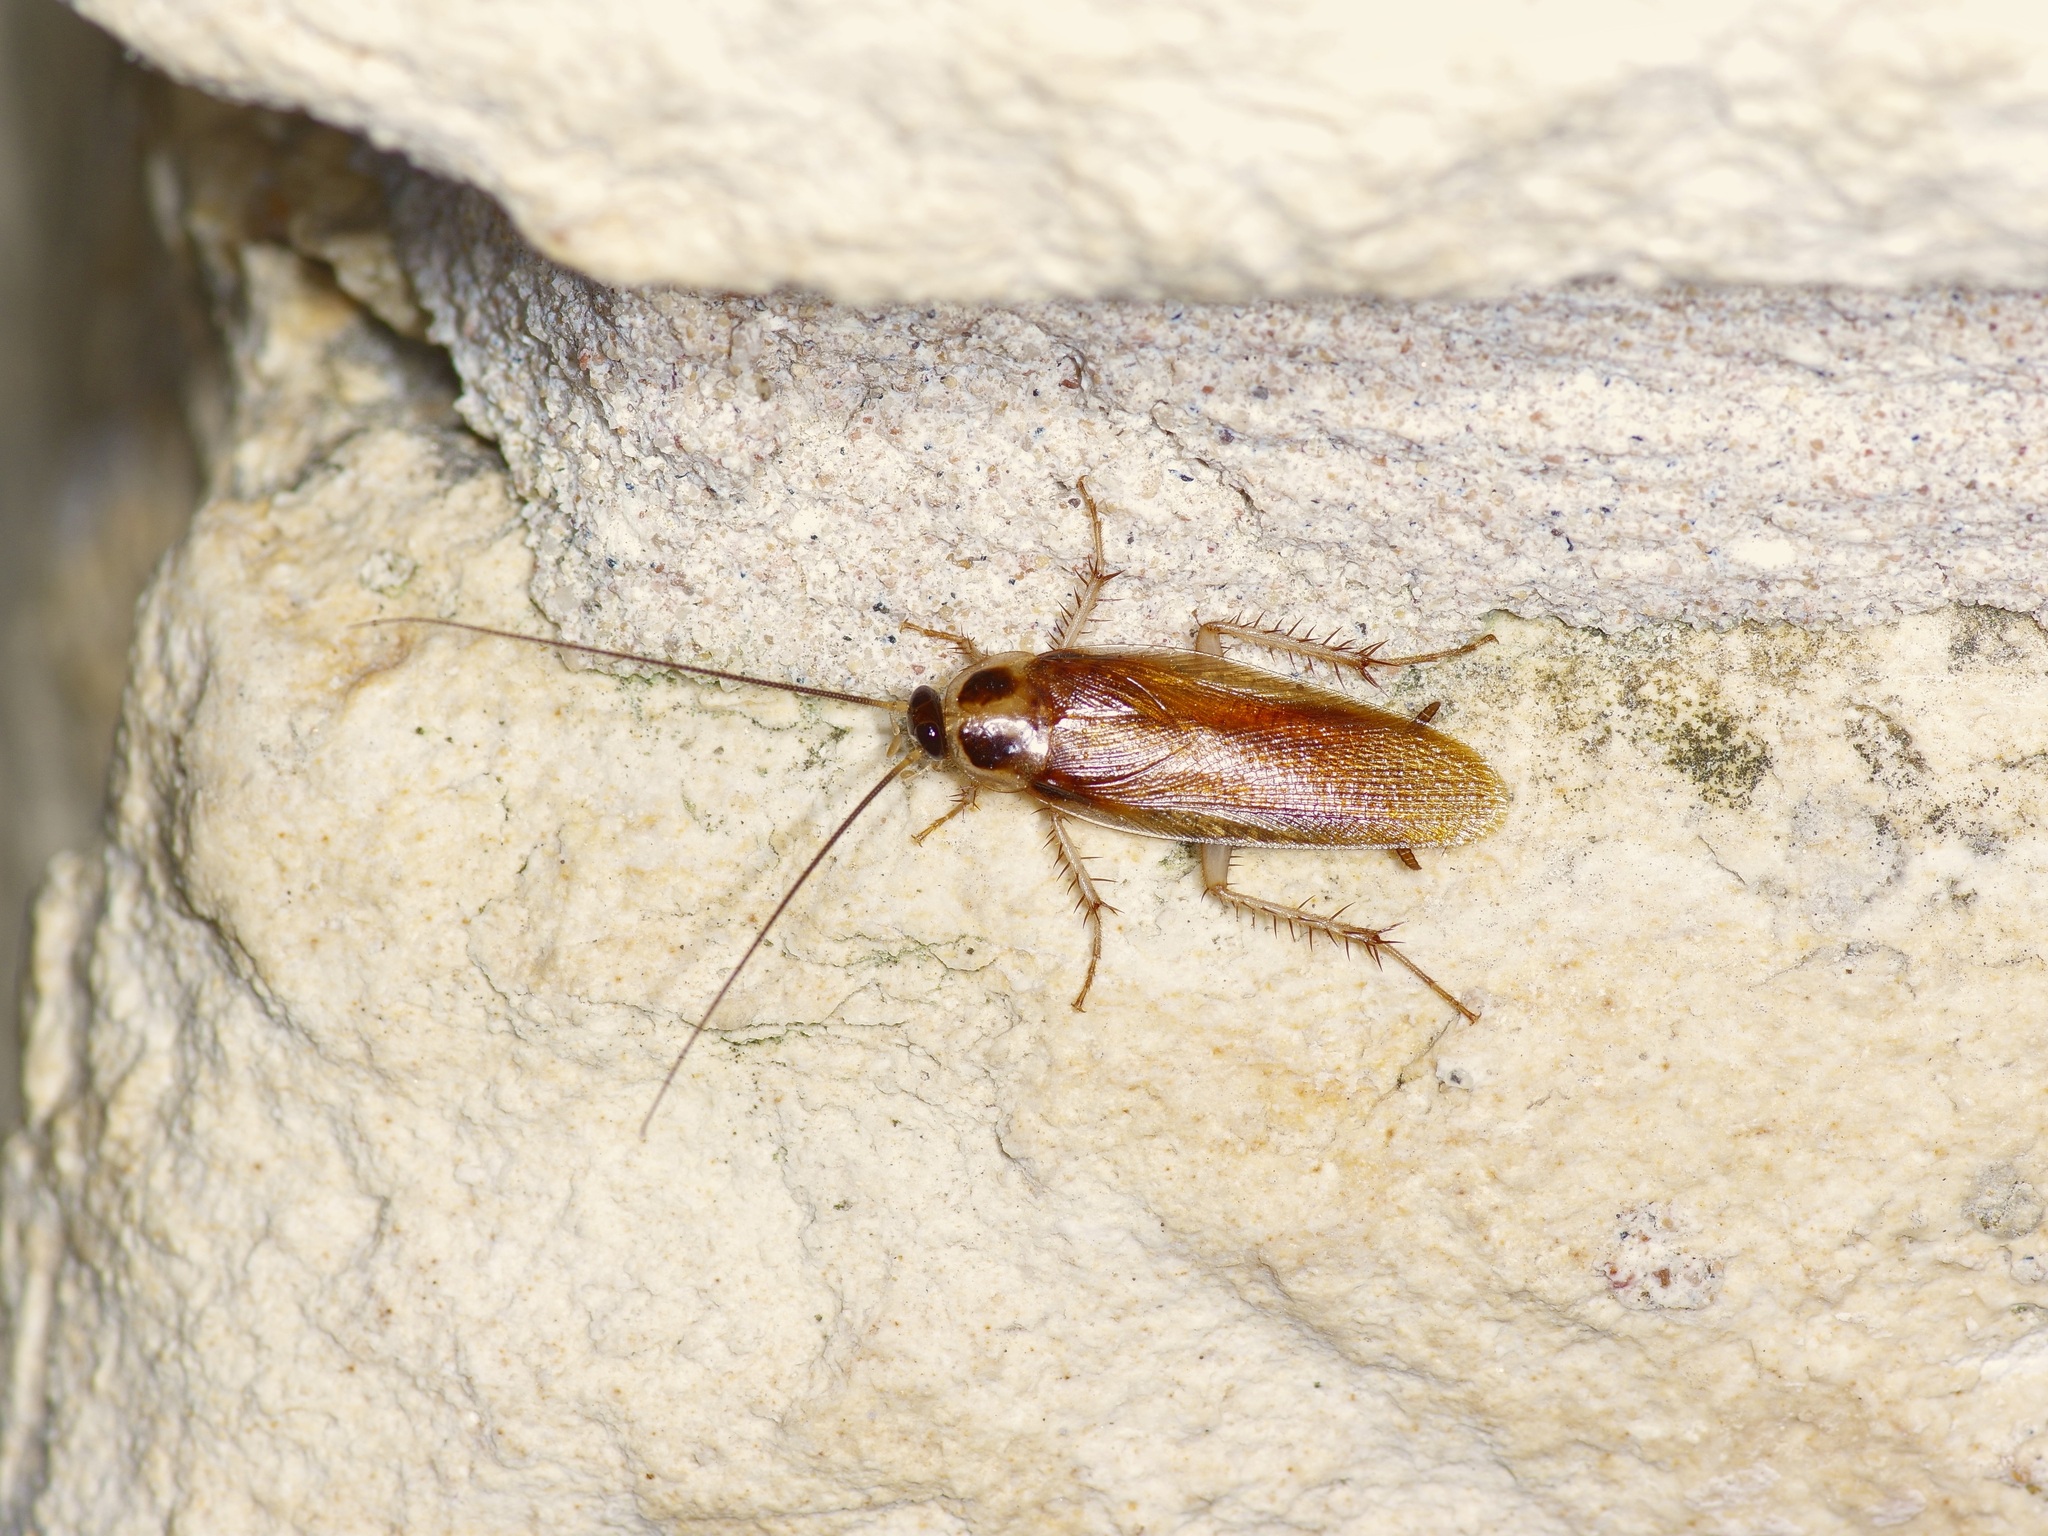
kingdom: Animalia
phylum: Arthropoda
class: Insecta
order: Blattodea
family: Ectobiidae
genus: Ischnoptera
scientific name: Ischnoptera bilunata
